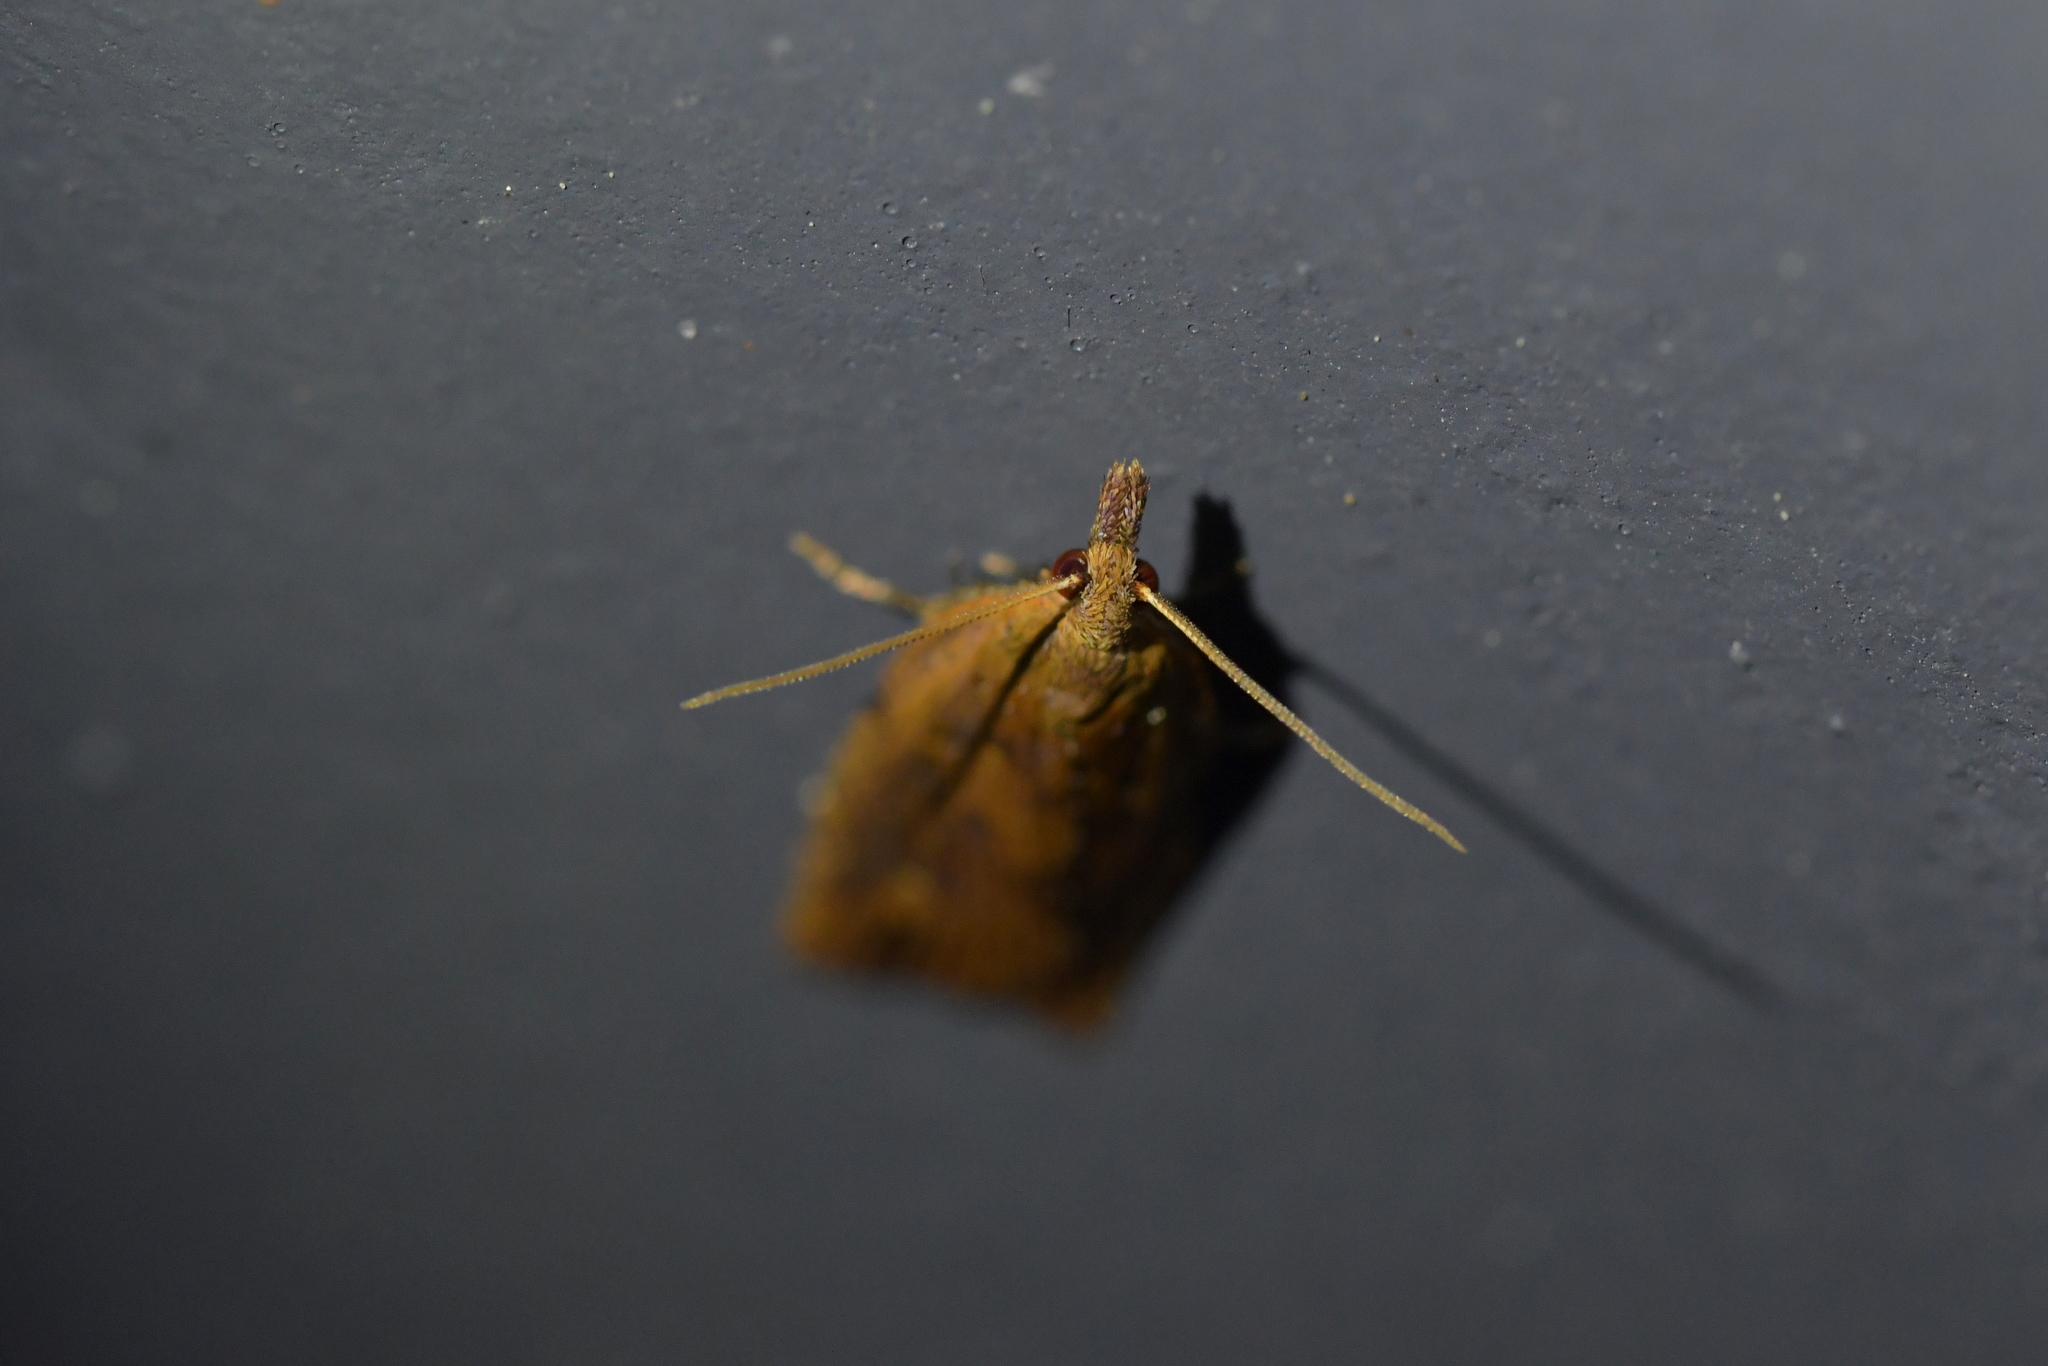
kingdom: Animalia
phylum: Arthropoda
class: Insecta
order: Lepidoptera
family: Tortricidae
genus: Planotortrix
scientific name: Planotortrix notophaea
